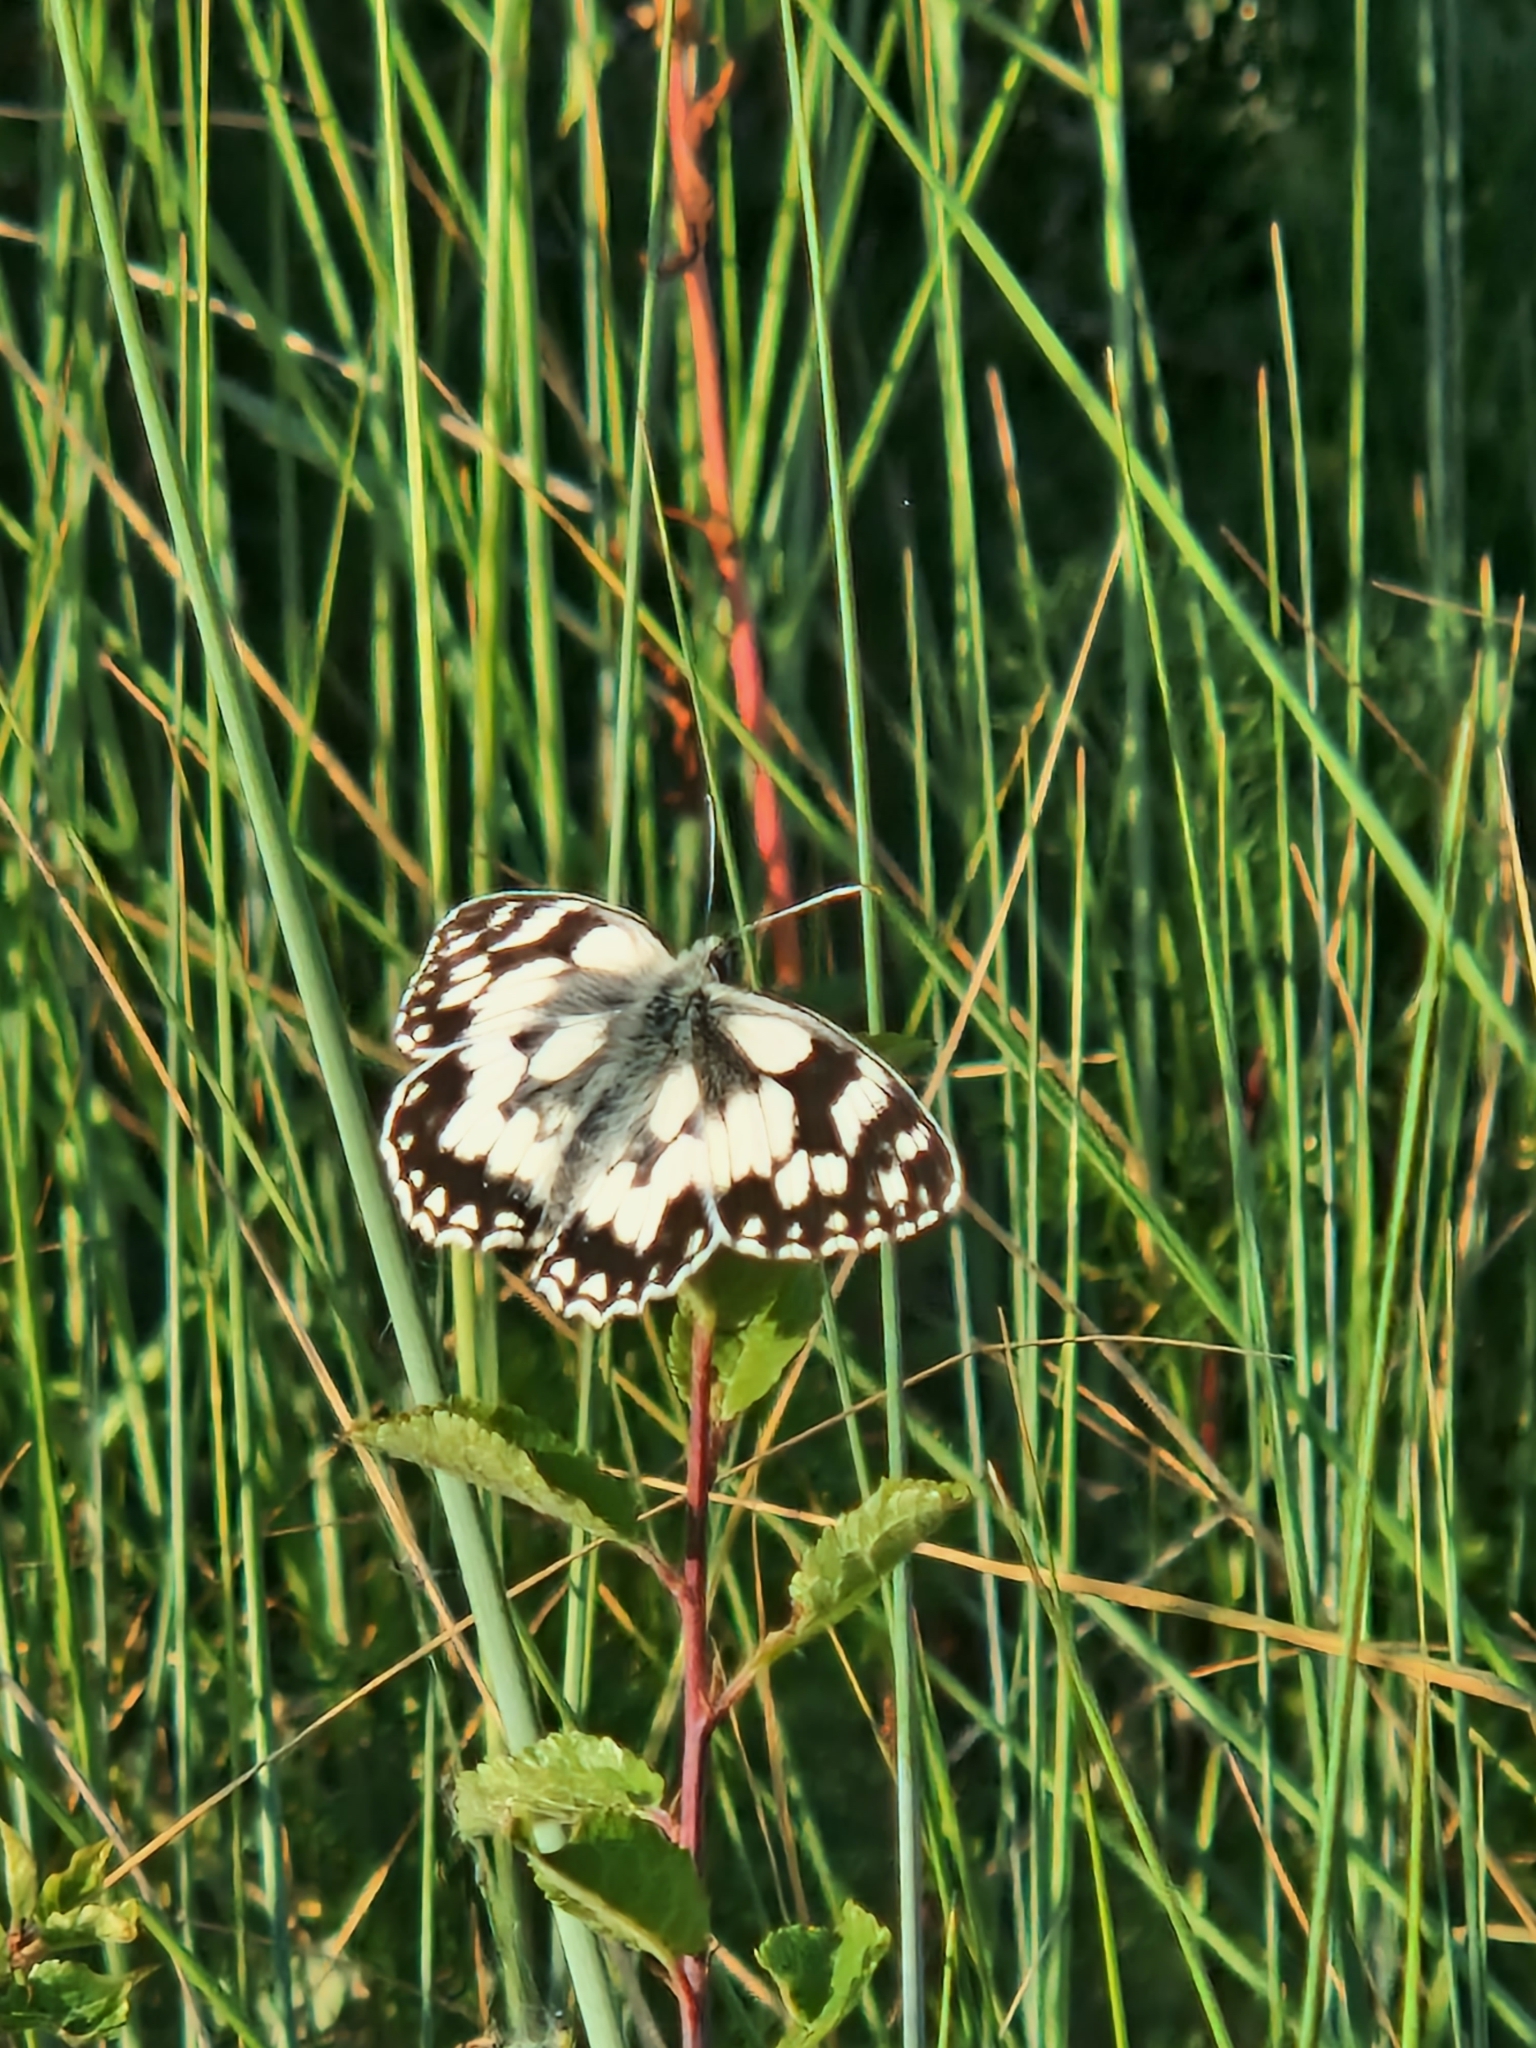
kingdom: Animalia
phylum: Arthropoda
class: Insecta
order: Lepidoptera
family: Nymphalidae
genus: Melanargia
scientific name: Melanargia galathea
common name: Marbled white
